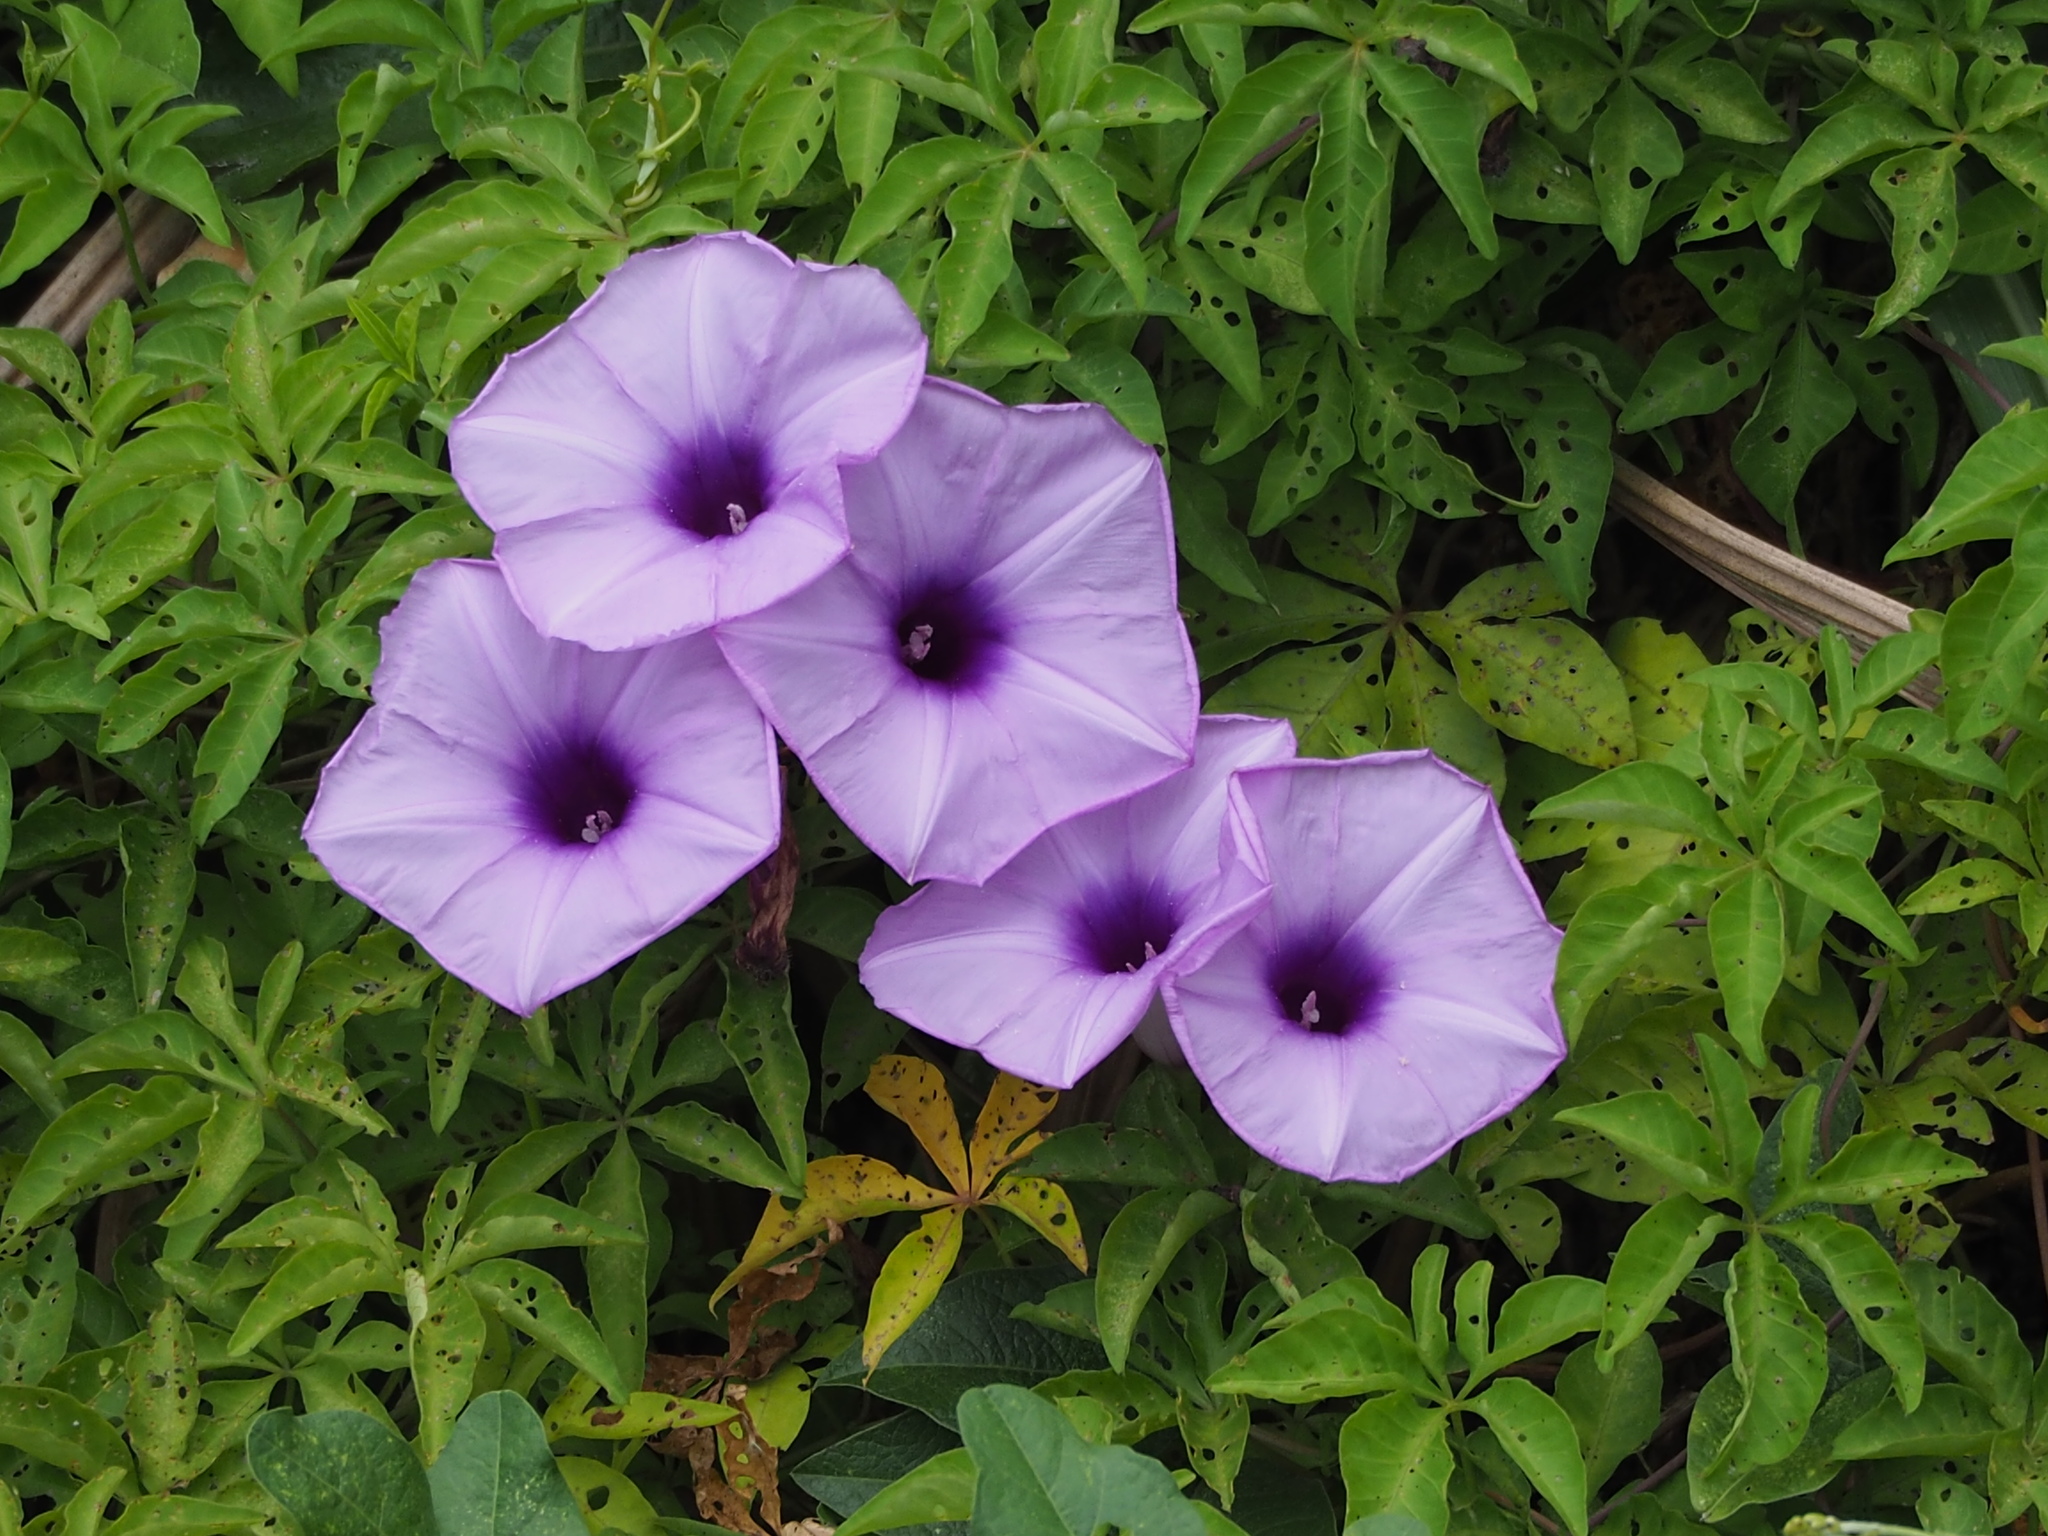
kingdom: Plantae
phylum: Tracheophyta
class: Magnoliopsida
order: Solanales
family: Convolvulaceae
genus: Ipomoea
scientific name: Ipomoea cairica
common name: Mile a minute vine
